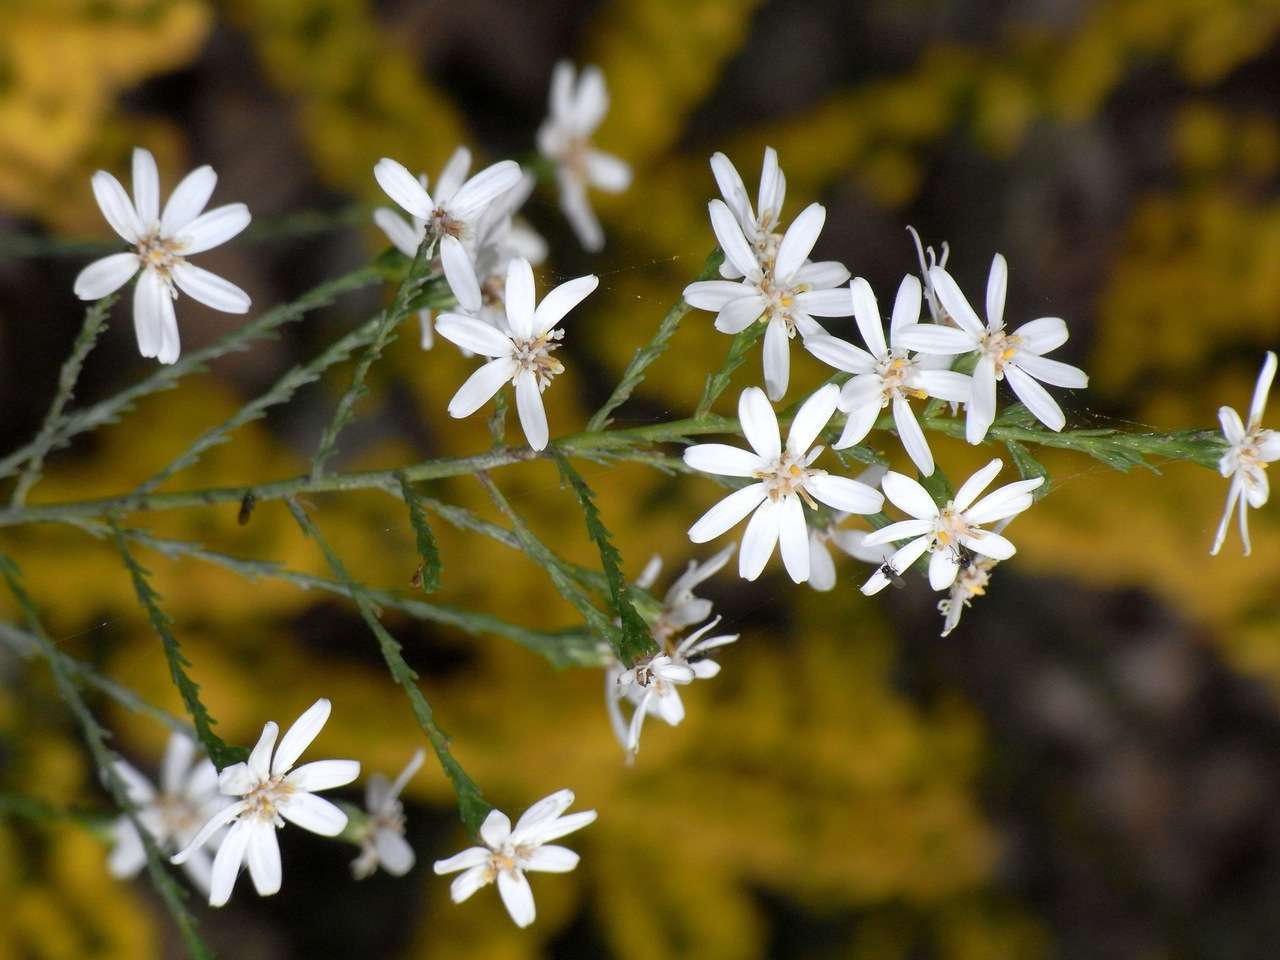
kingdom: Plantae
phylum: Tracheophyta
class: Magnoliopsida
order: Asterales
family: Asteraceae
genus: Olearia
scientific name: Olearia teretifolia
